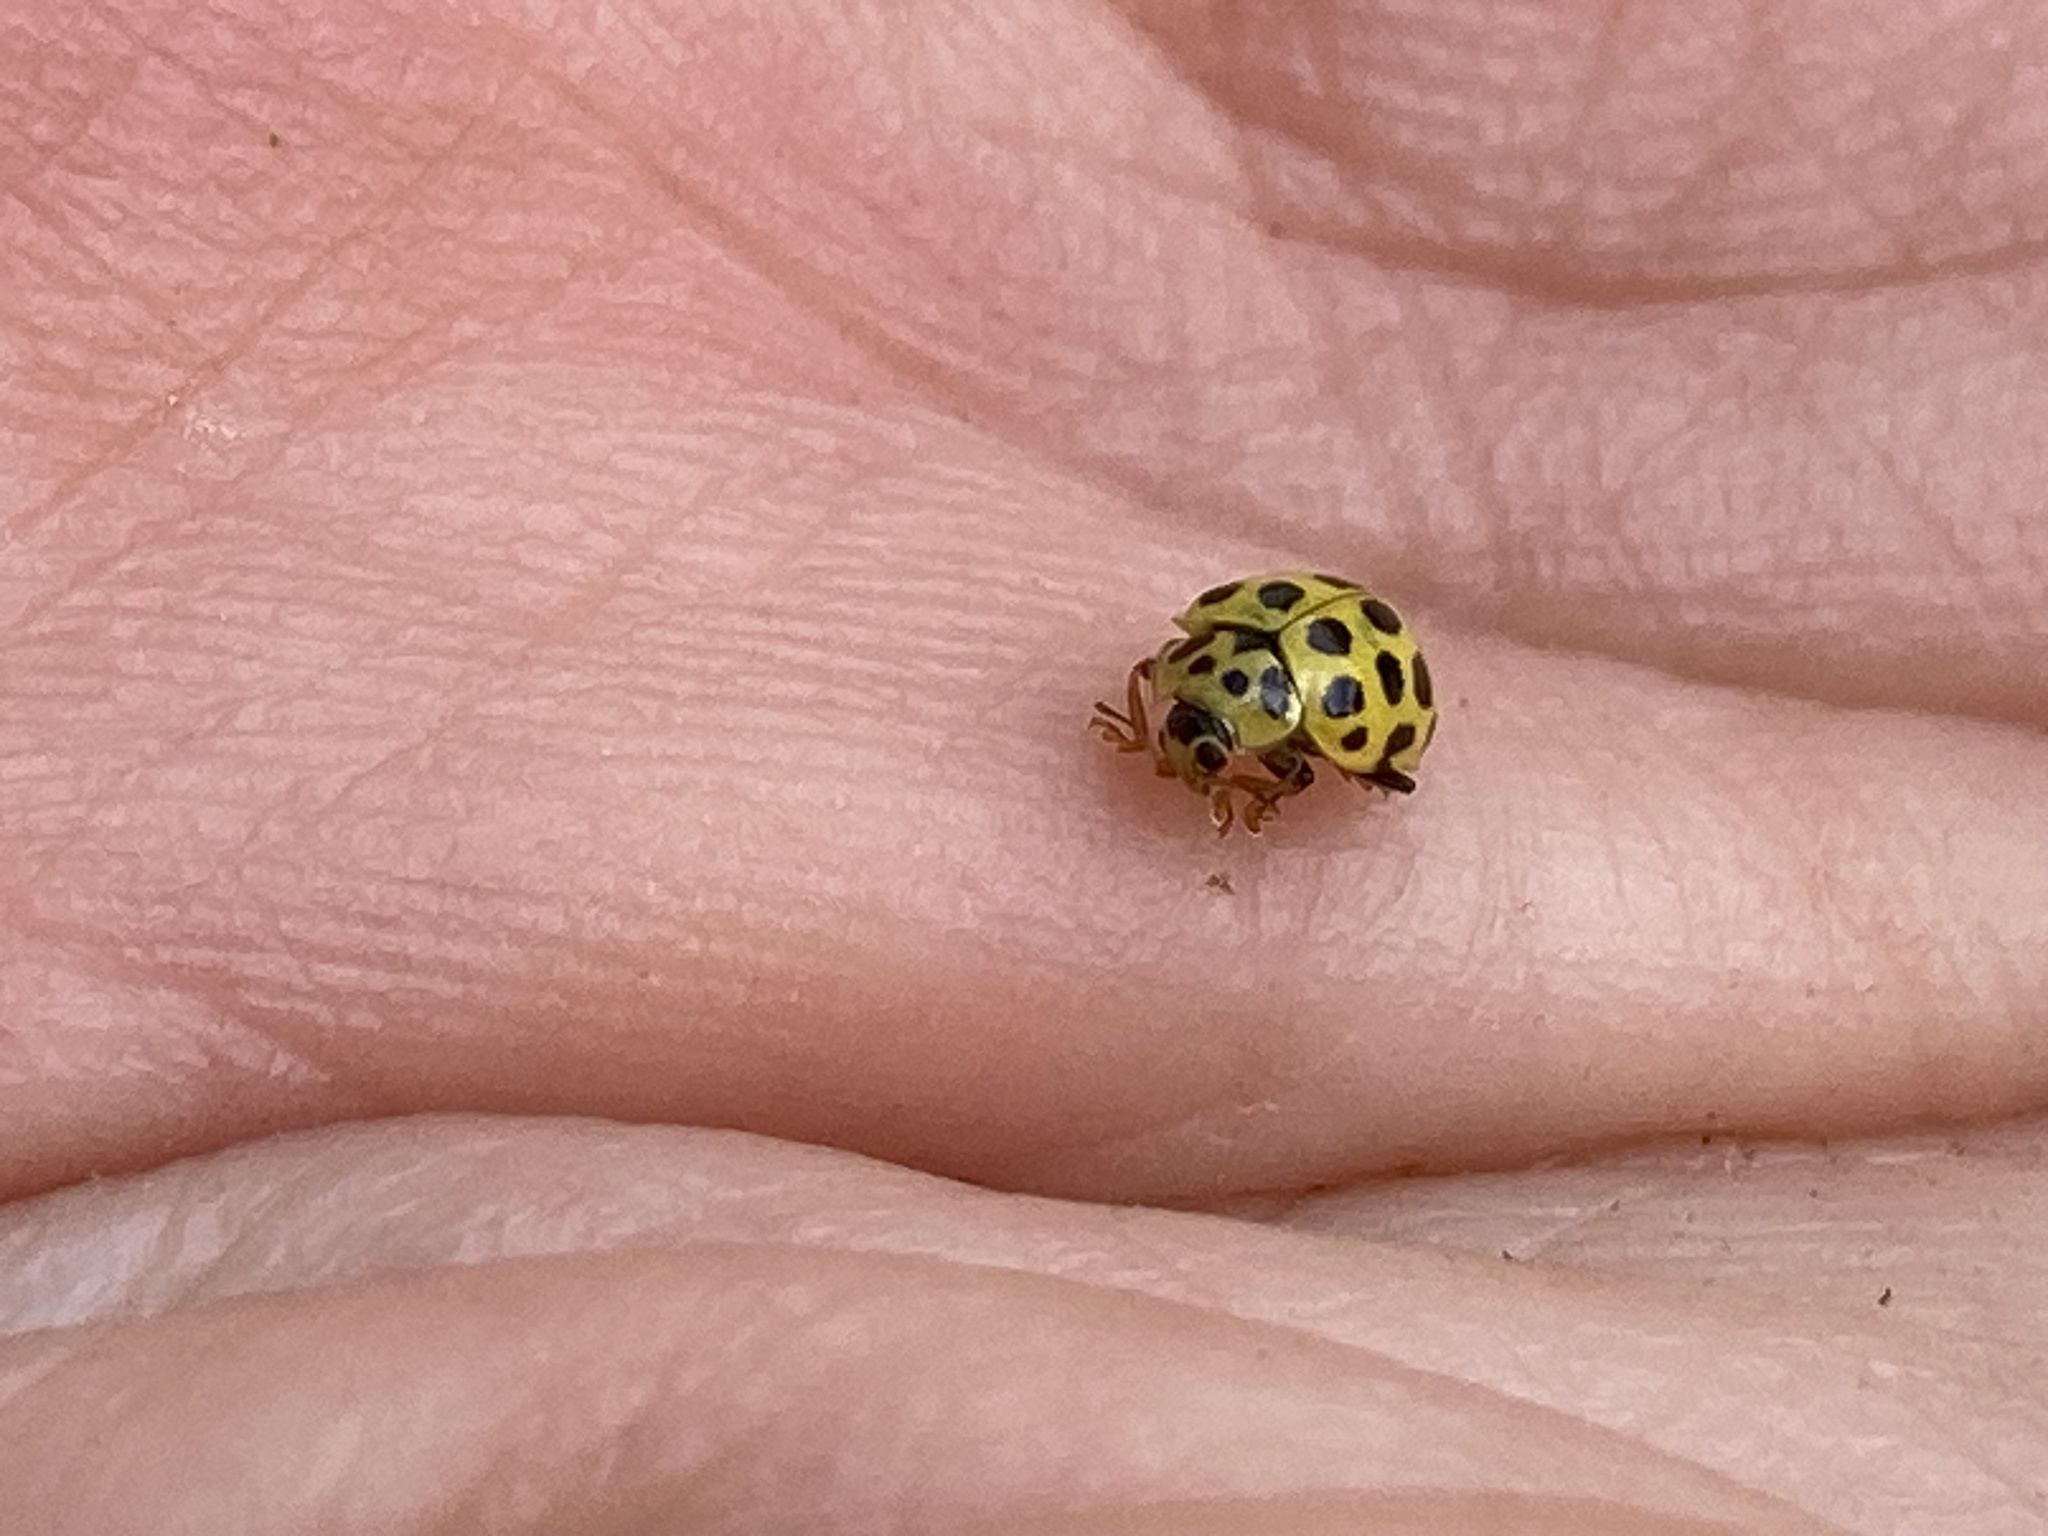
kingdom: Animalia
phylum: Arthropoda
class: Insecta
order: Coleoptera
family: Coccinellidae
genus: Psyllobora
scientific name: Psyllobora vigintiduopunctata
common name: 22-spot ladybird
